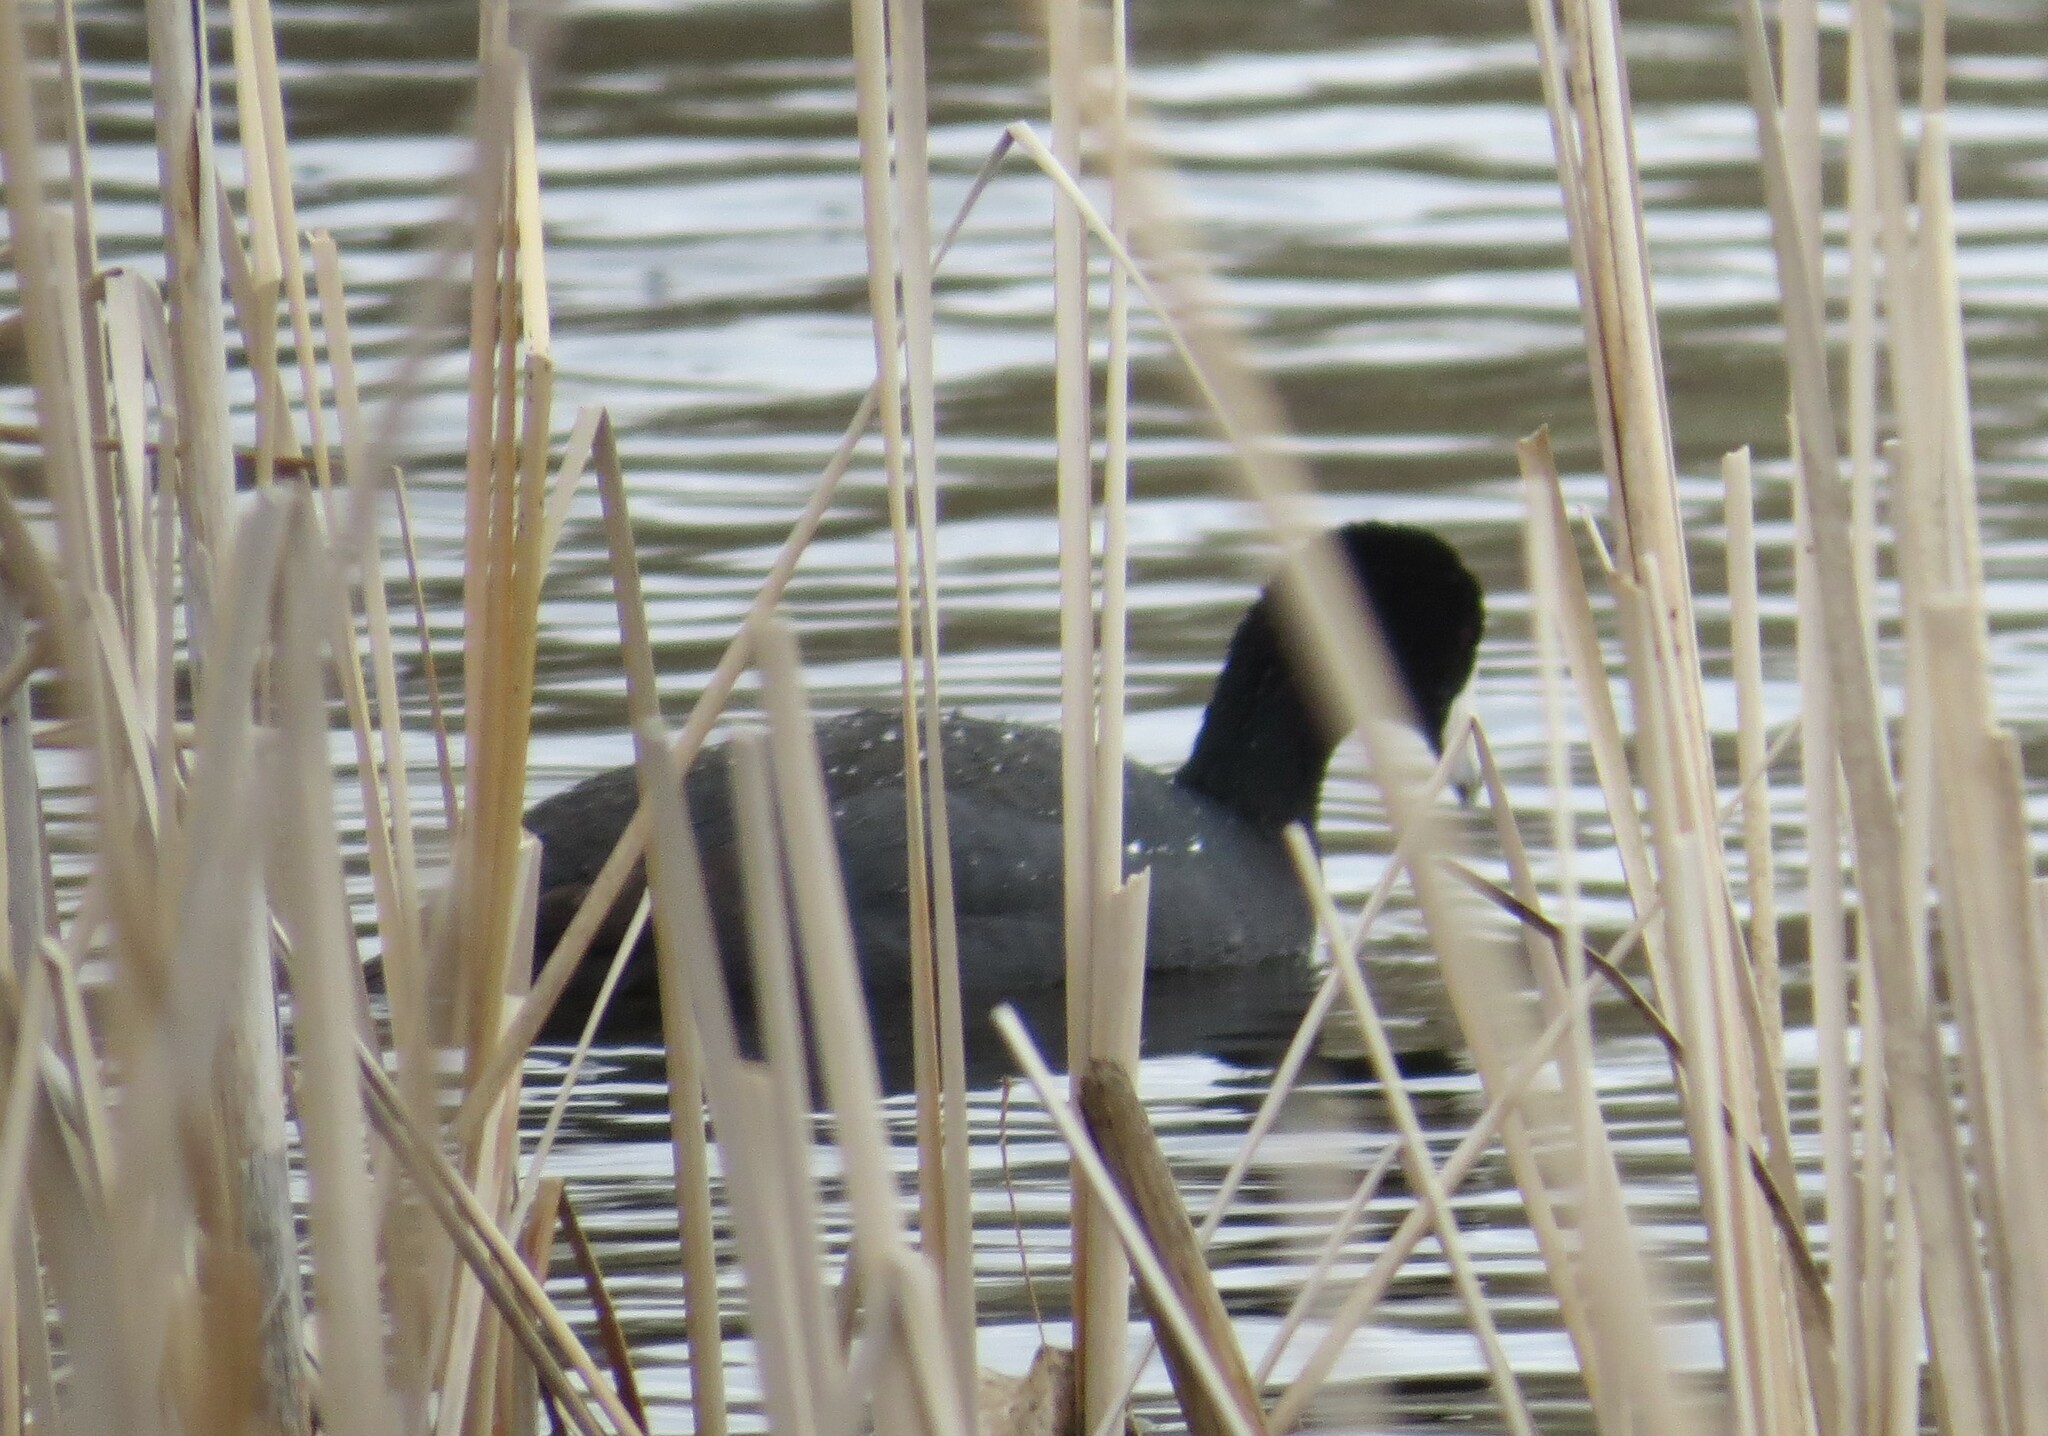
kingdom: Animalia
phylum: Chordata
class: Aves
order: Gruiformes
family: Rallidae
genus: Fulica
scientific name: Fulica americana
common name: American coot
